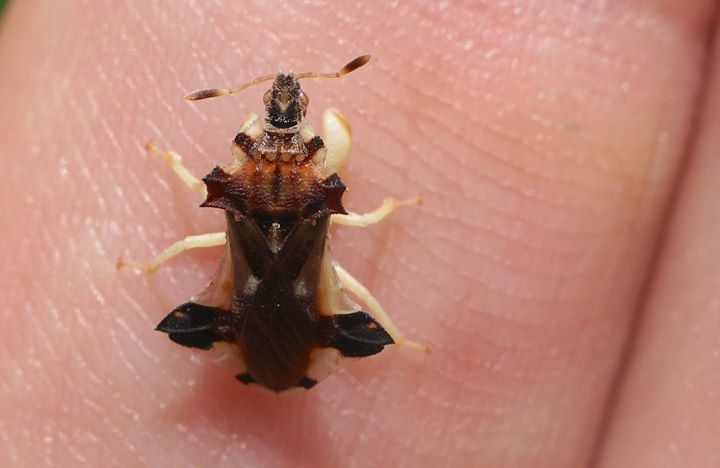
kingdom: Animalia
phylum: Arthropoda
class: Insecta
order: Hemiptera
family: Reduviidae
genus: Phymata
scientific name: Phymata fasciata
